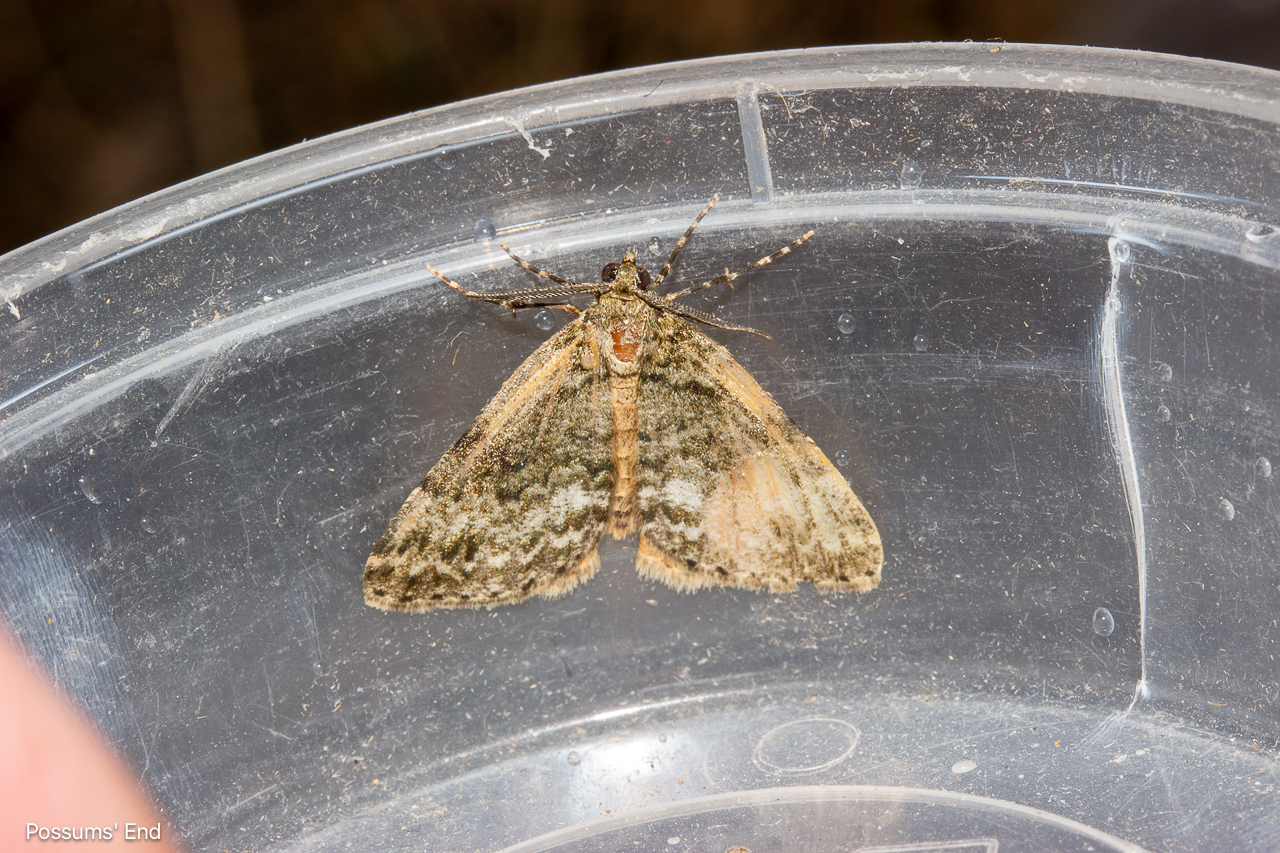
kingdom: Animalia
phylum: Arthropoda
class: Insecta
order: Lepidoptera
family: Geometridae
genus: Pseudocoremia
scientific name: Pseudocoremia indistincta
